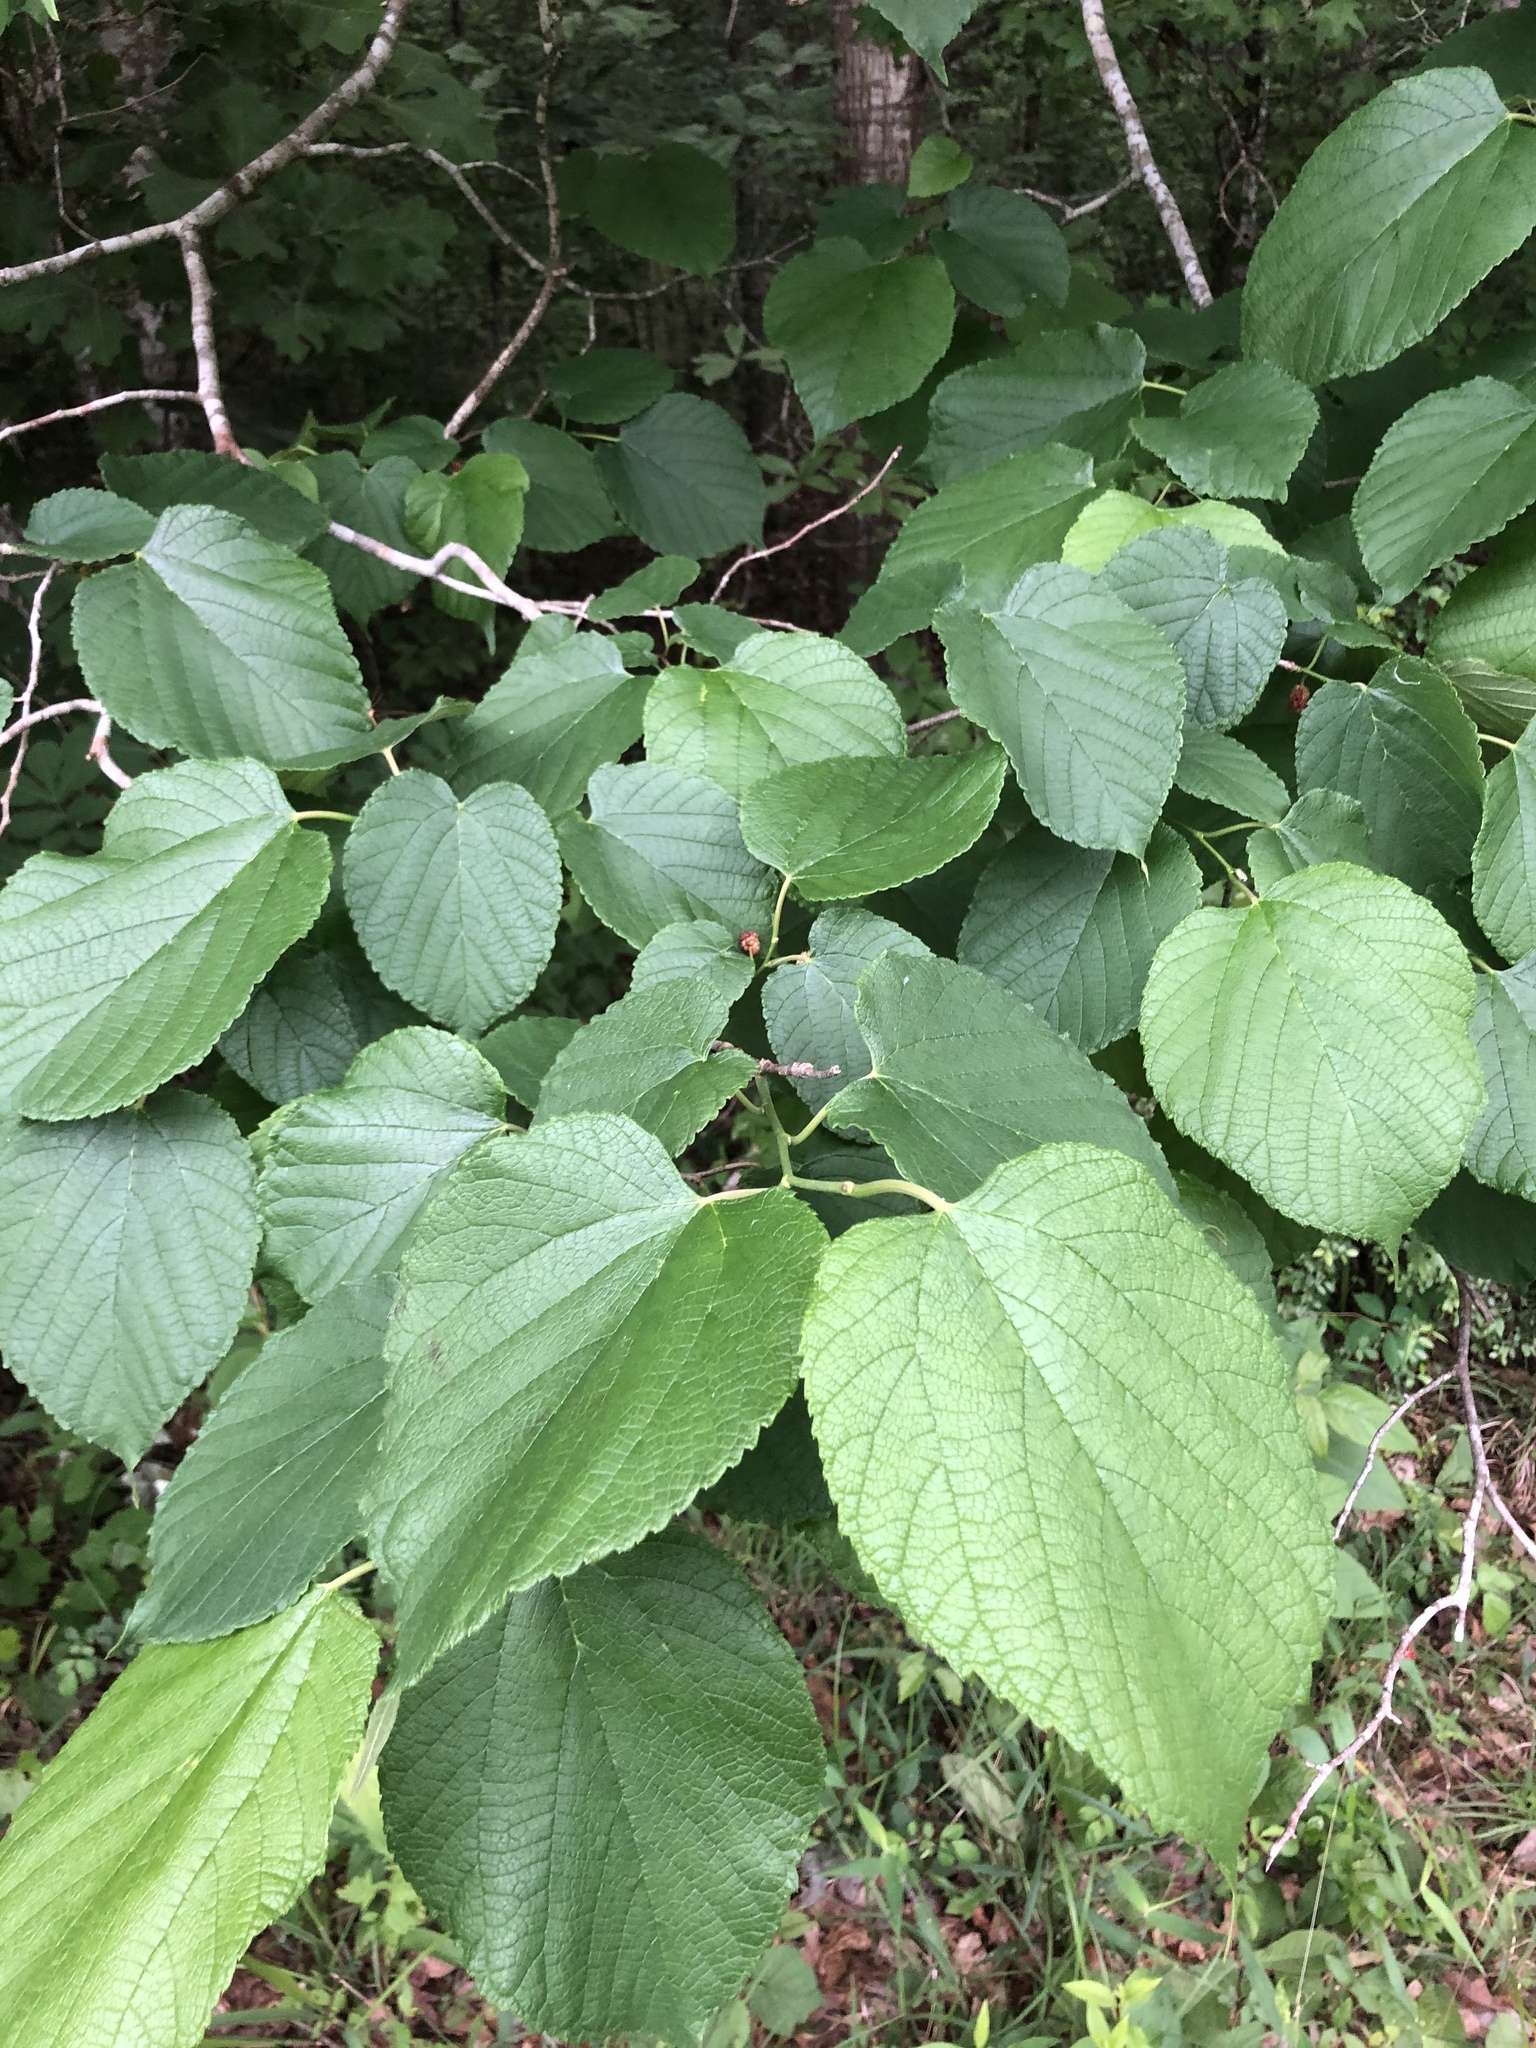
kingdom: Plantae
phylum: Tracheophyta
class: Magnoliopsida
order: Rosales
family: Moraceae
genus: Morus
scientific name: Morus rubra
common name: Red mulberry
